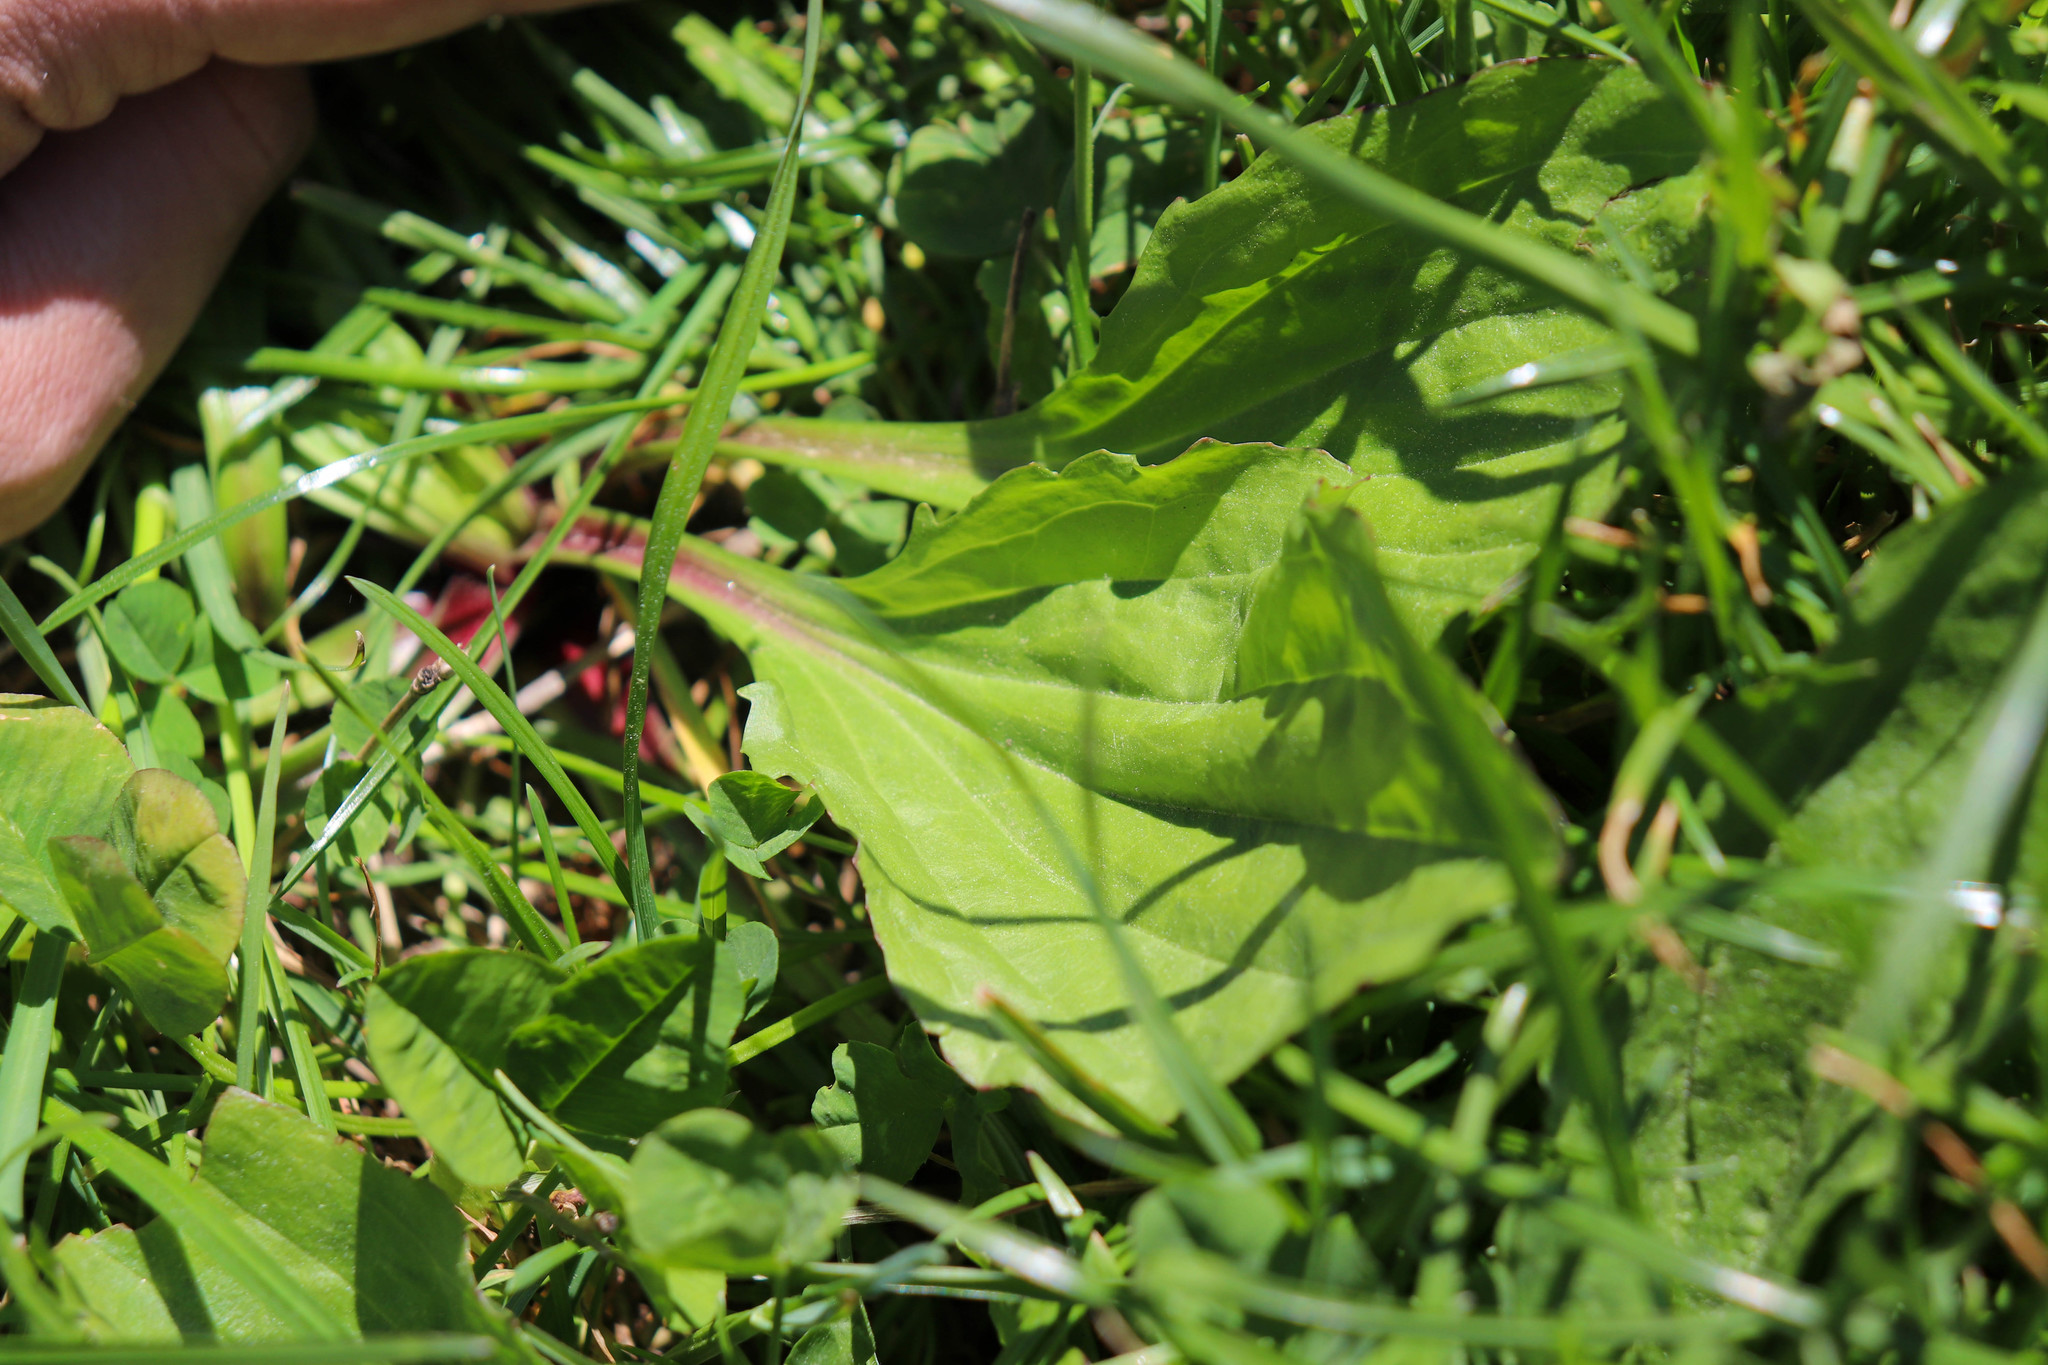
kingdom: Plantae
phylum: Tracheophyta
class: Magnoliopsida
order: Lamiales
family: Plantaginaceae
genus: Plantago
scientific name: Plantago rugelii
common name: American plantain
